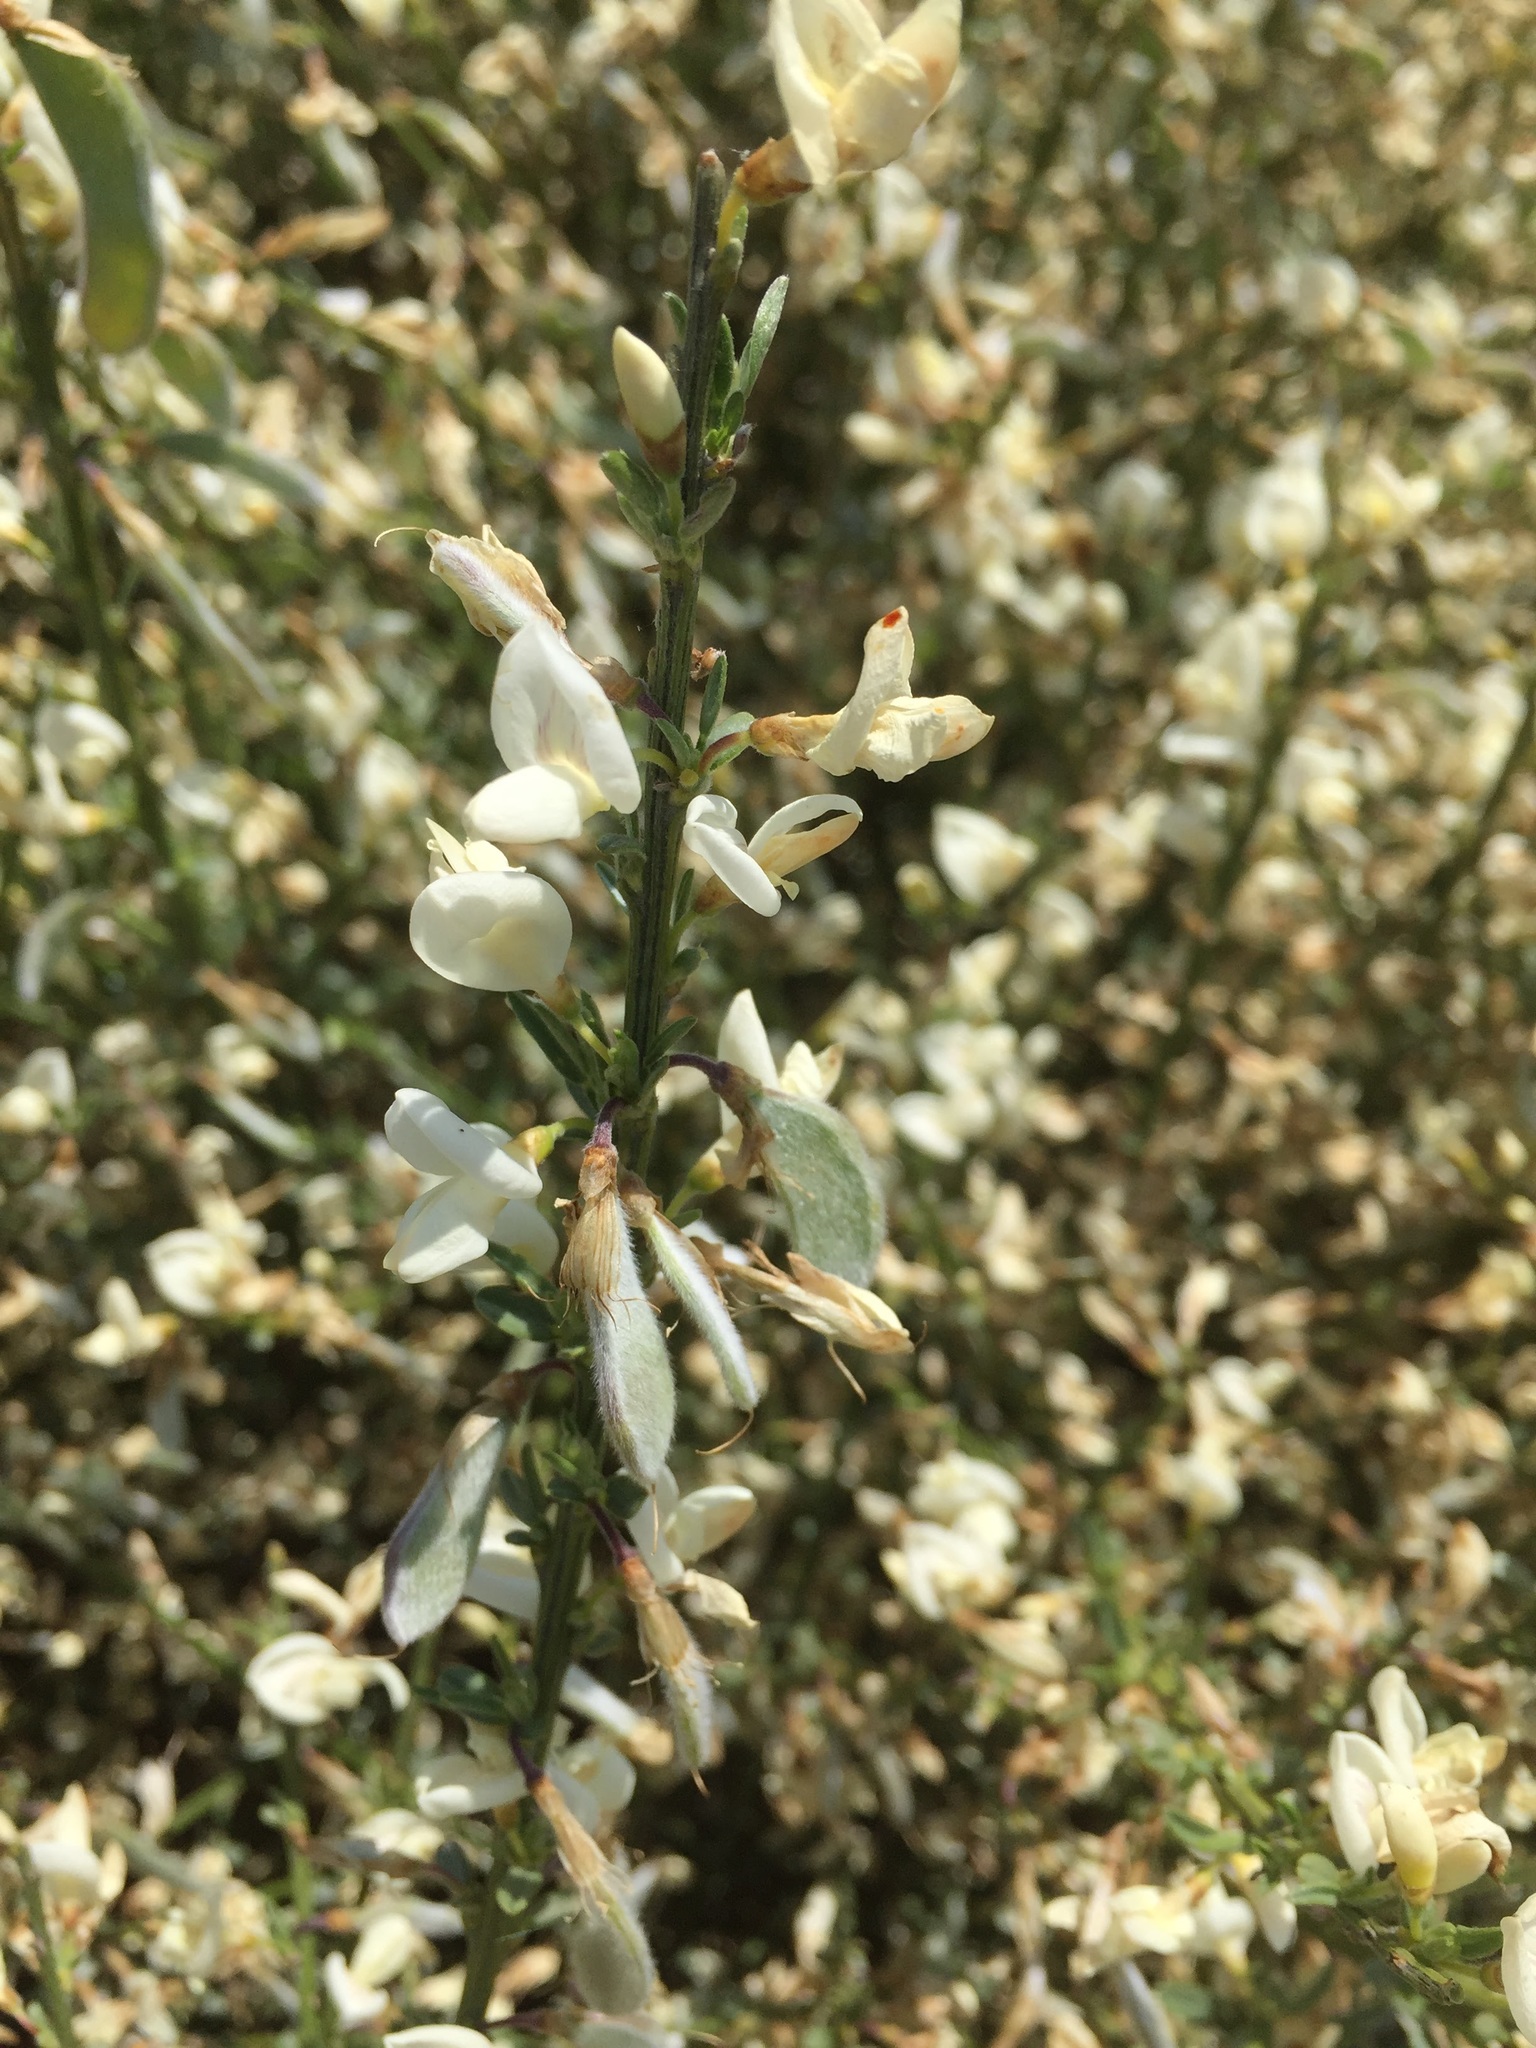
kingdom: Plantae
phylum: Tracheophyta
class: Magnoliopsida
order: Fabales
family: Fabaceae
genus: Cytisus
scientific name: Cytisus multiflorus
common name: White broom
